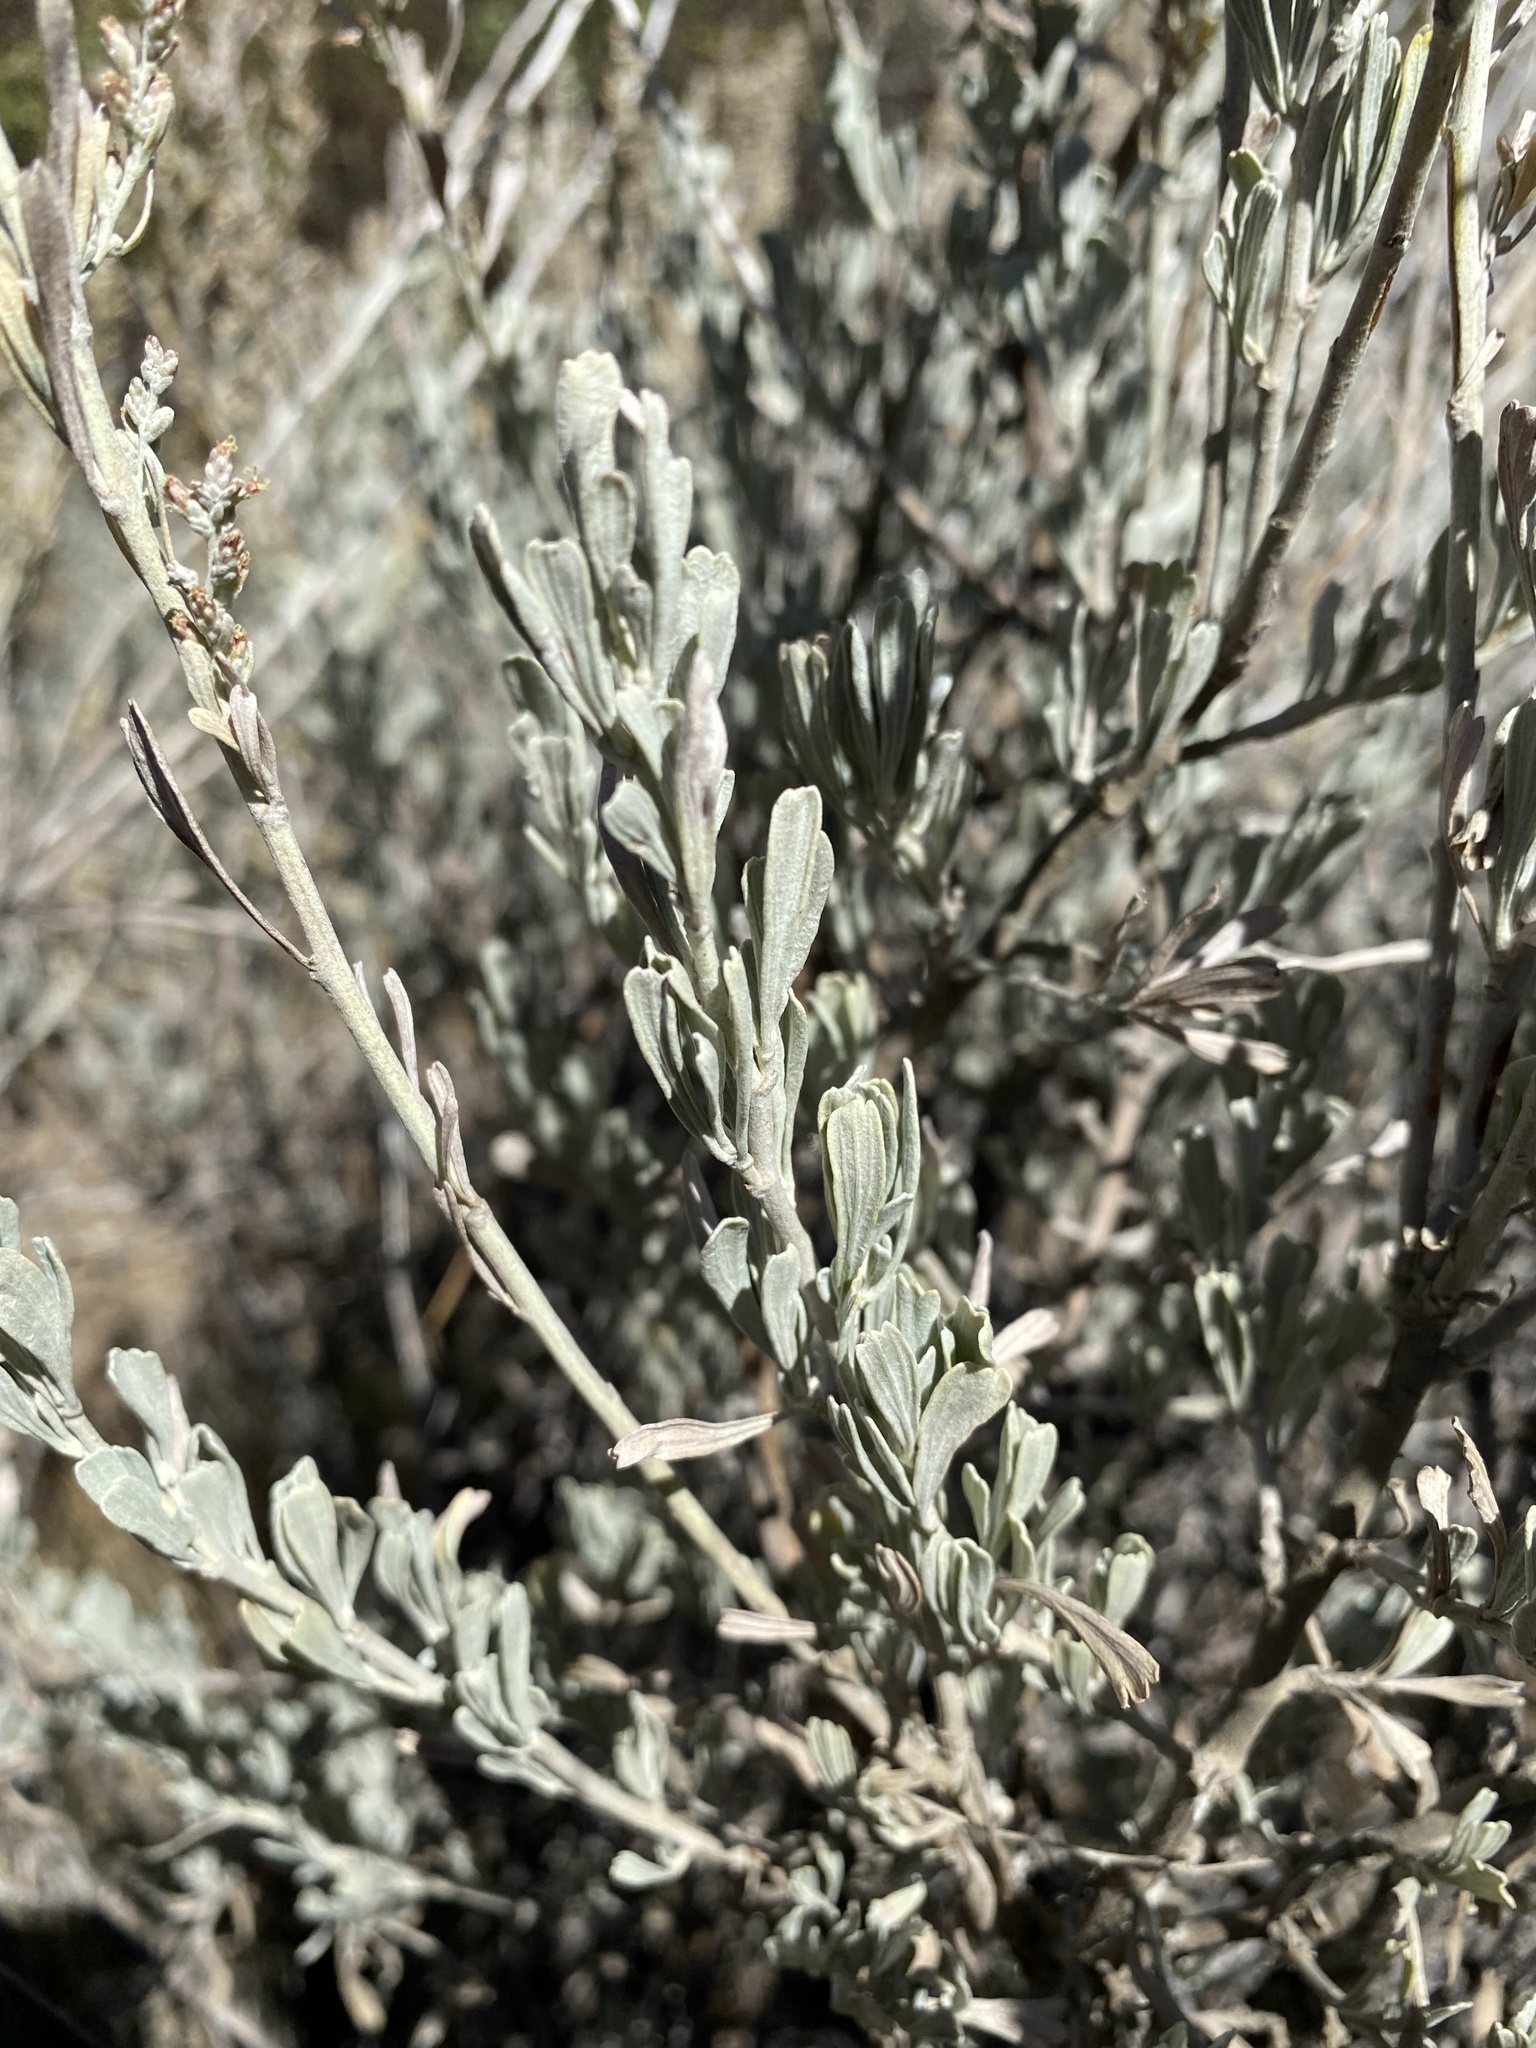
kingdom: Plantae
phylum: Tracheophyta
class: Magnoliopsida
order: Asterales
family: Asteraceae
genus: Artemisia
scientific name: Artemisia tridentata
